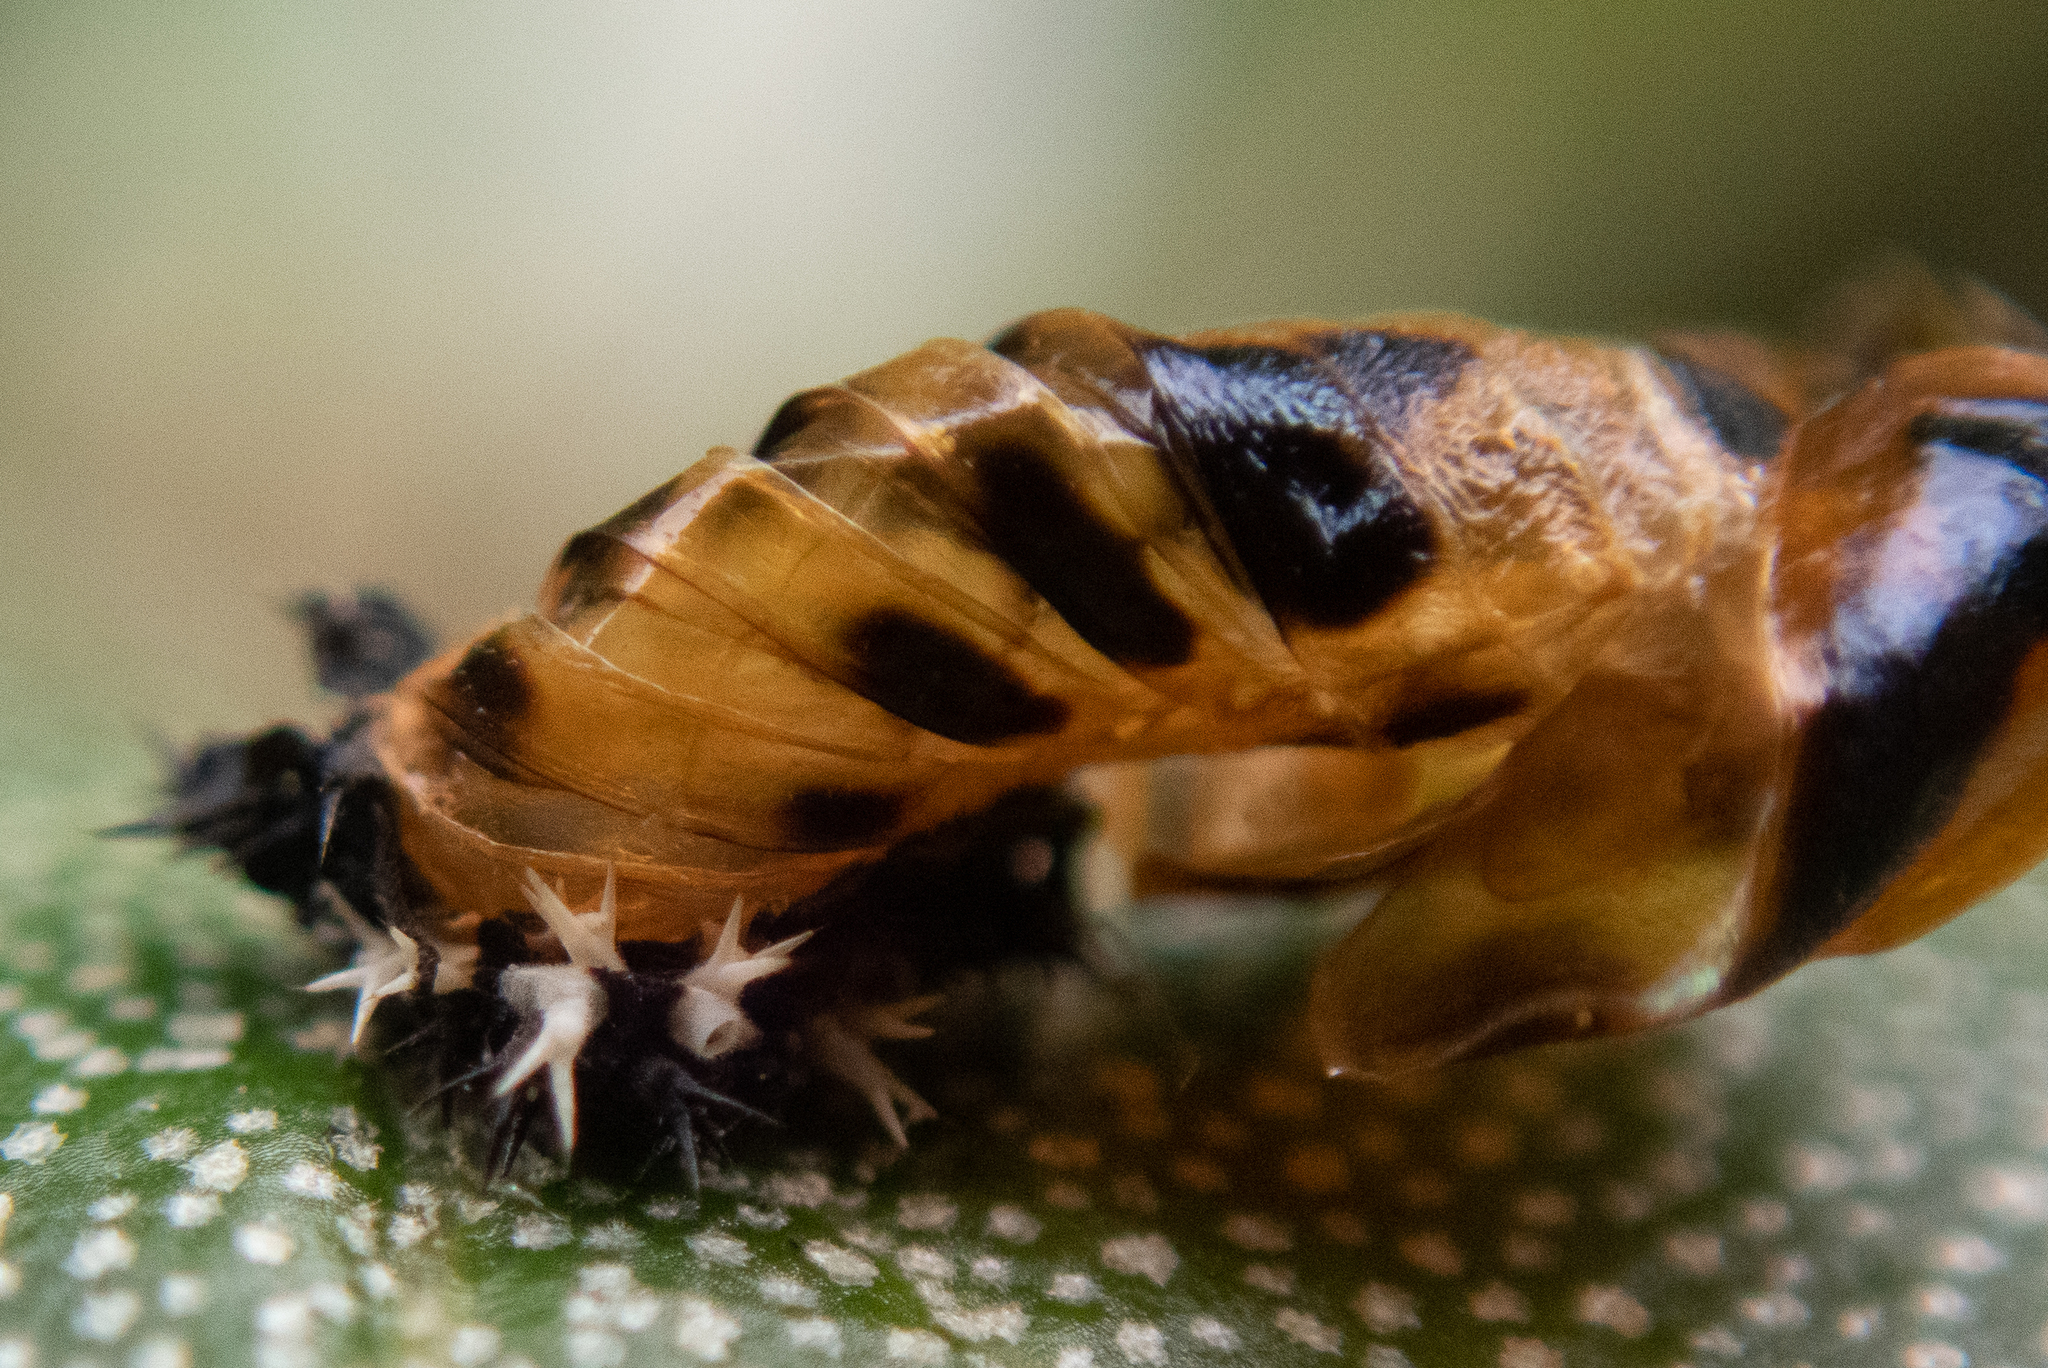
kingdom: Animalia
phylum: Arthropoda
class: Insecta
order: Coleoptera
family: Coccinellidae
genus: Harmonia
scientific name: Harmonia axyridis
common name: Harlequin ladybird
